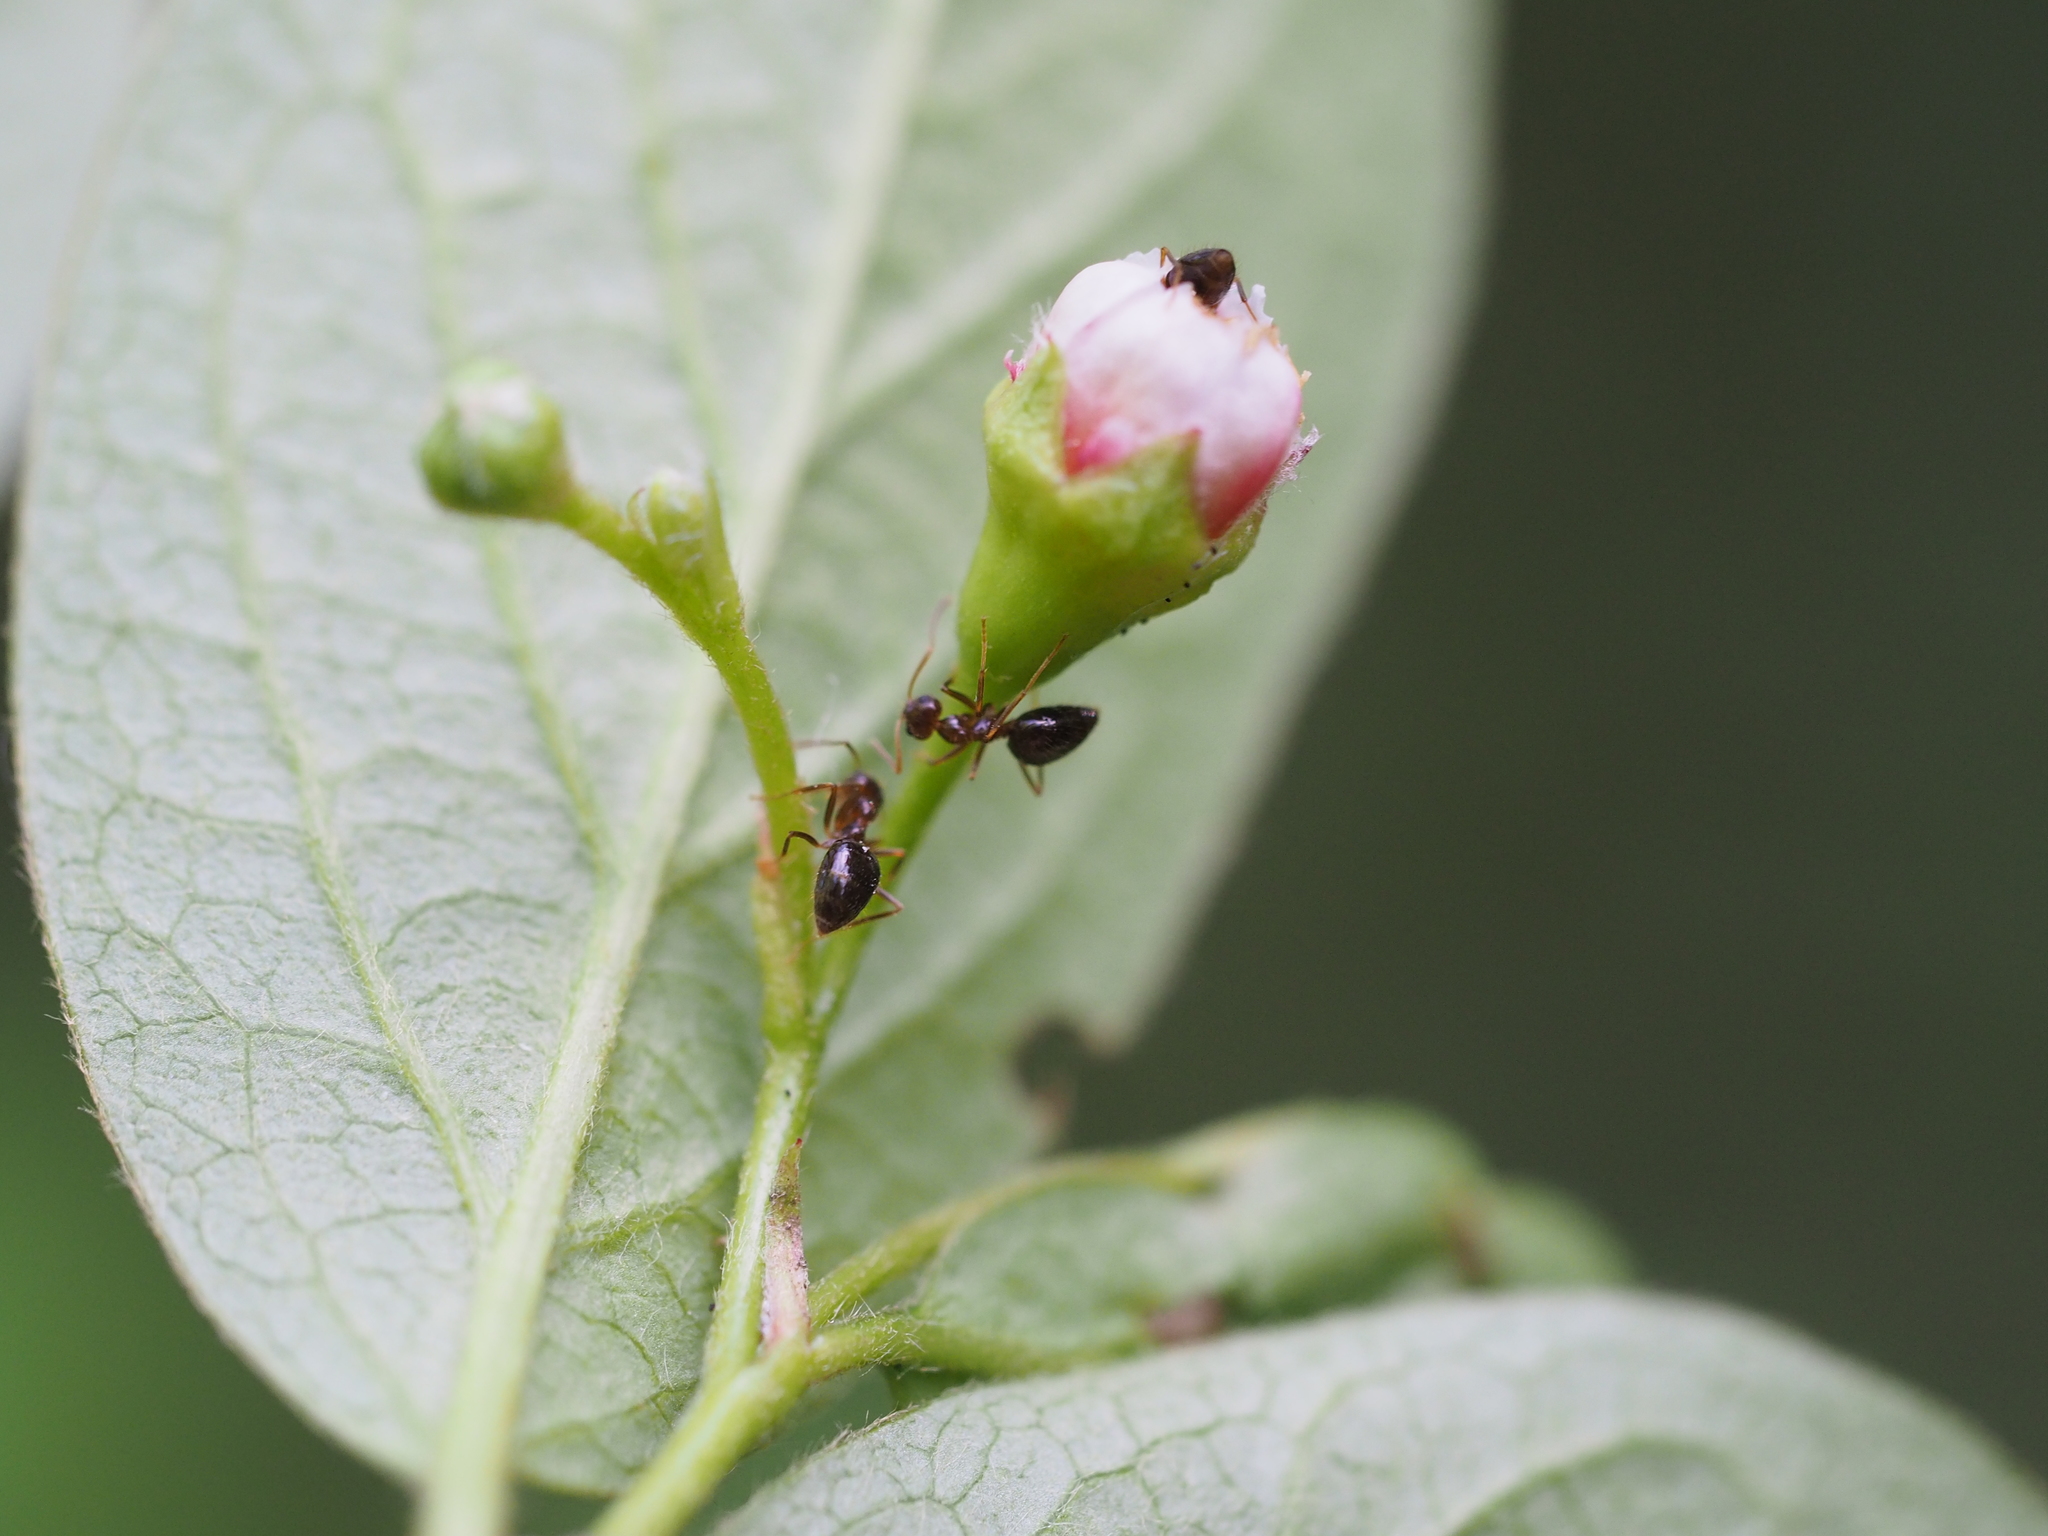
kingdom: Animalia
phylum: Arthropoda
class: Insecta
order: Hymenoptera
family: Formicidae
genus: Prenolepis
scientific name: Prenolepis nitens
